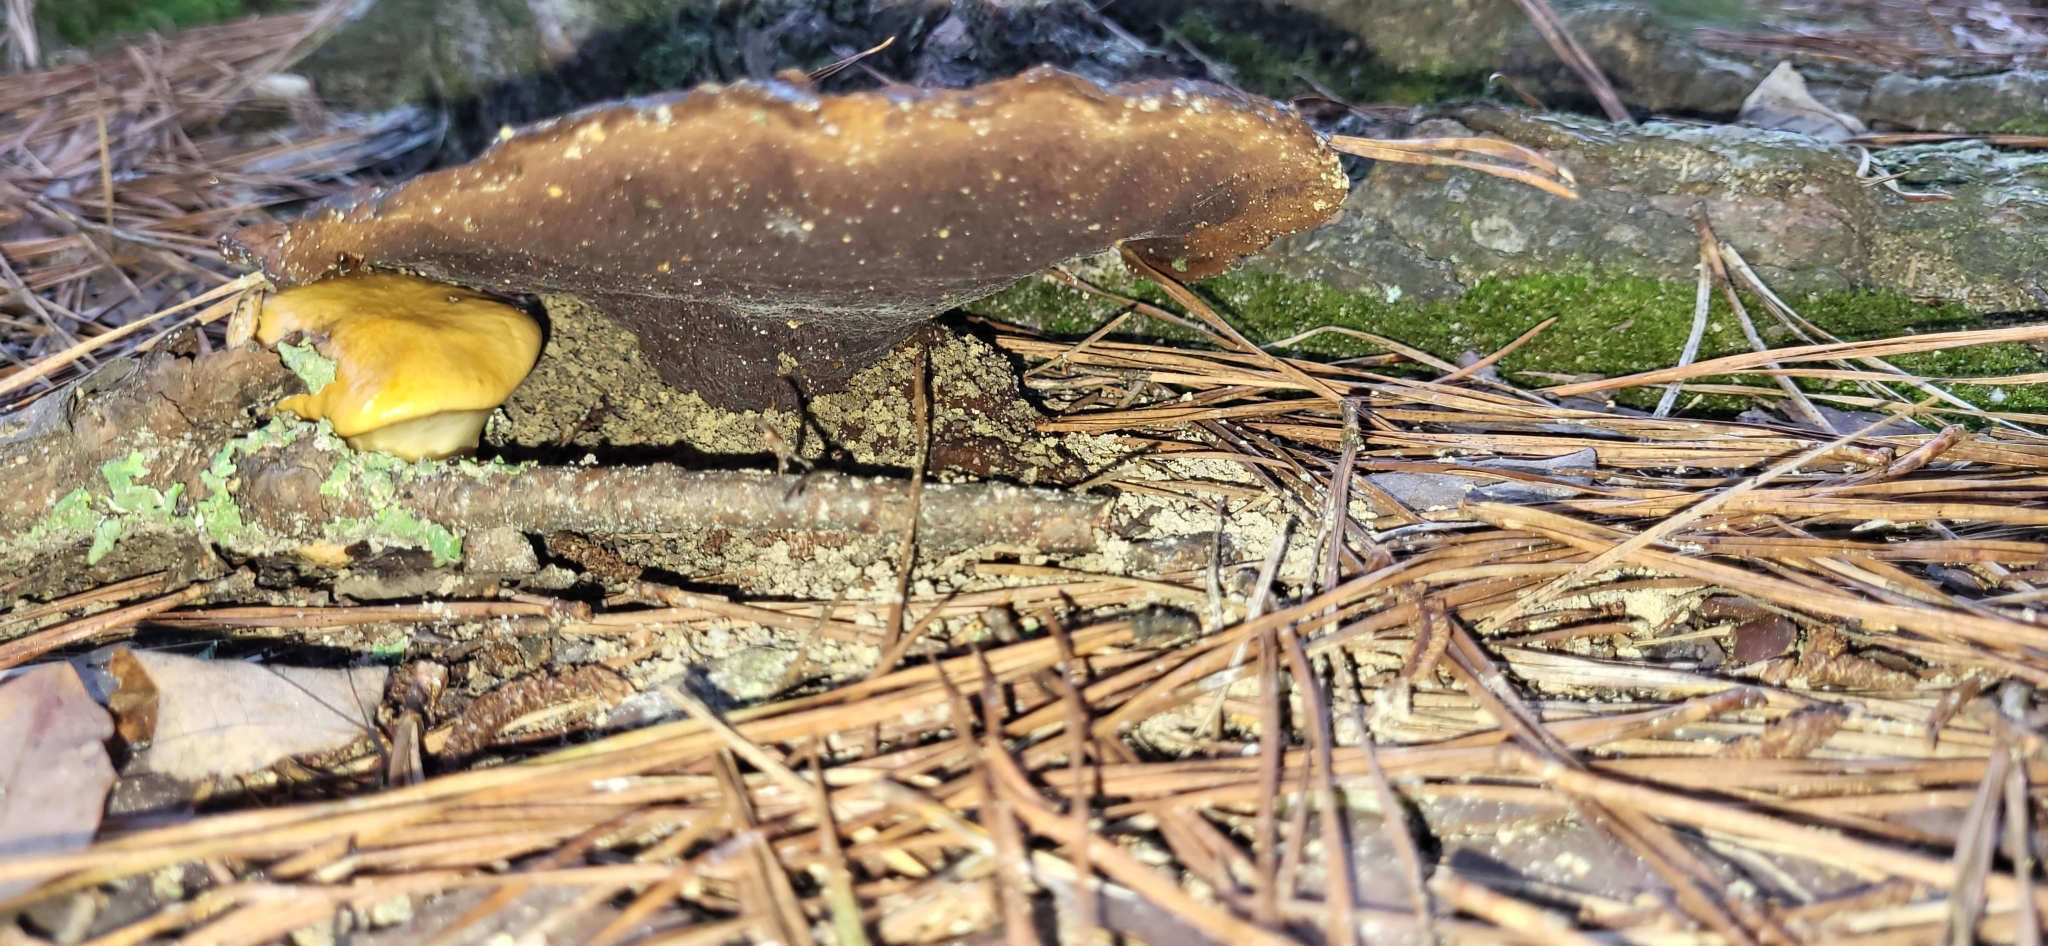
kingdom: Fungi
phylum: Basidiomycota
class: Agaricomycetes
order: Polyporales
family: Laetiporaceae
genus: Phaeolus
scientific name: Phaeolus schweinitzii
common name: Dyer's mazegill
